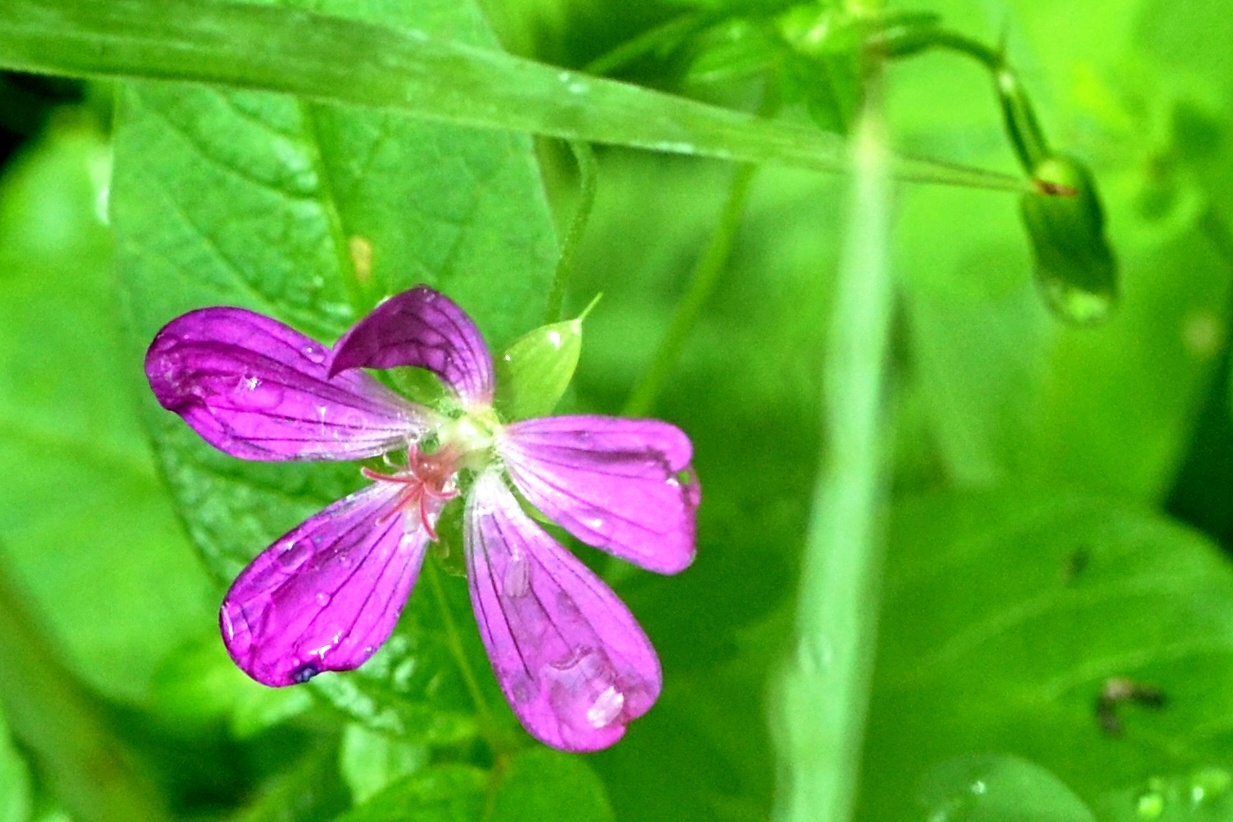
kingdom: Plantae
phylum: Tracheophyta
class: Magnoliopsida
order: Geraniales
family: Geraniaceae
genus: Geranium
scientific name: Geranium palustre
